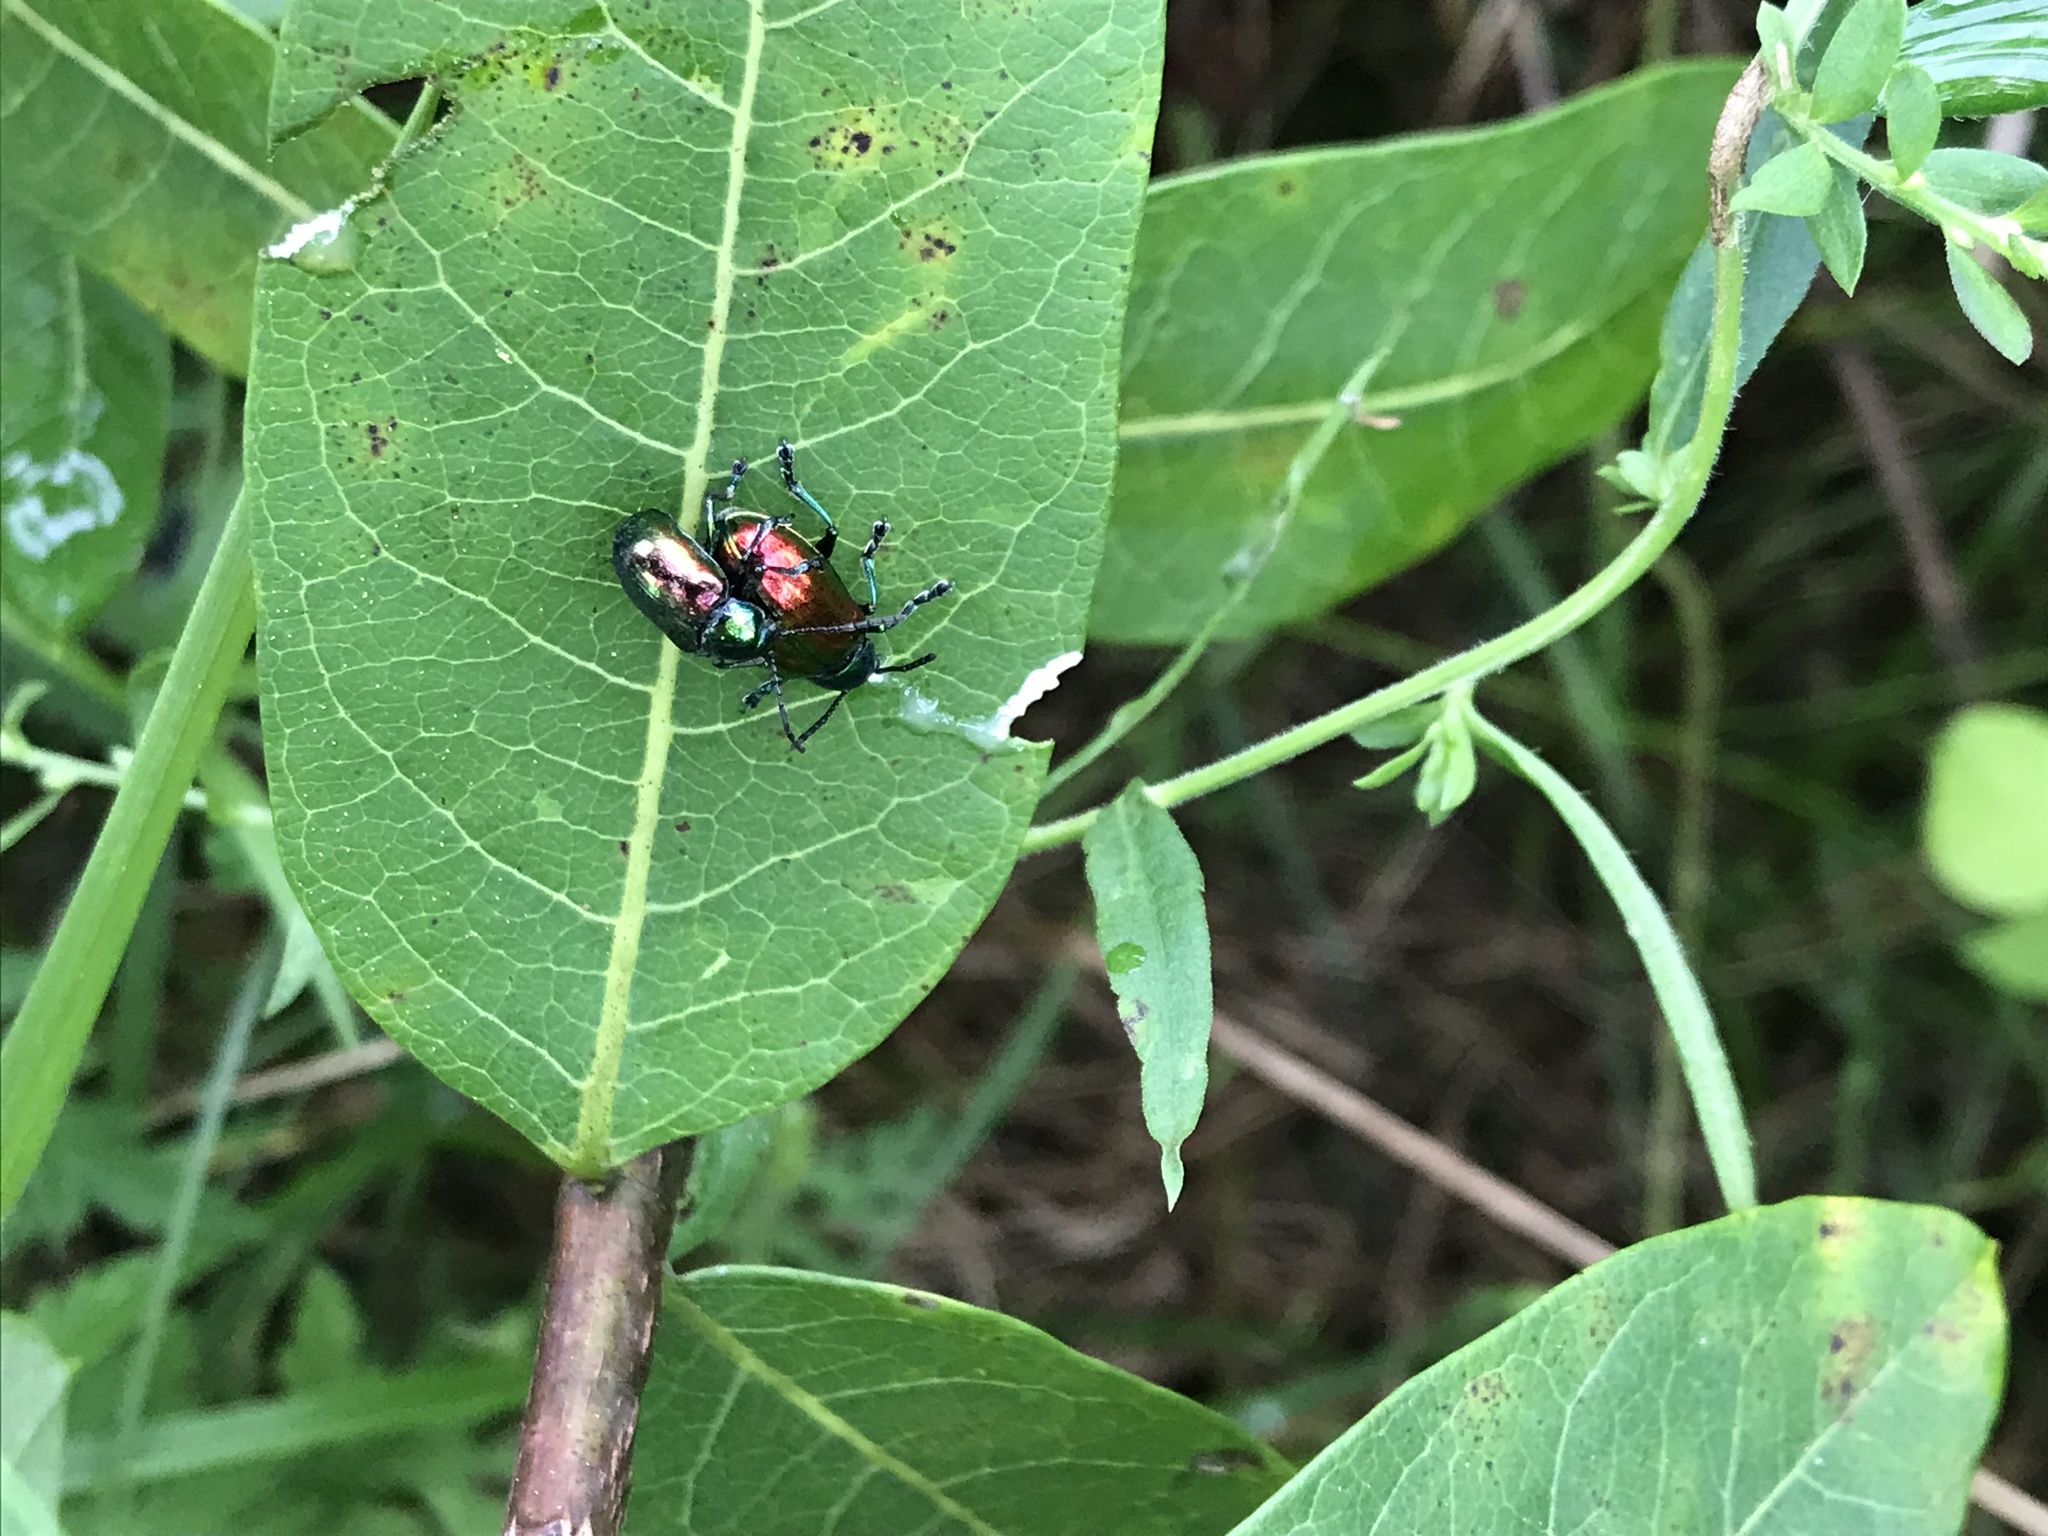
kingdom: Animalia
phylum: Arthropoda
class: Insecta
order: Coleoptera
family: Chrysomelidae
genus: Chrysochus
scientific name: Chrysochus auratus
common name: Dogbane leaf beetle
